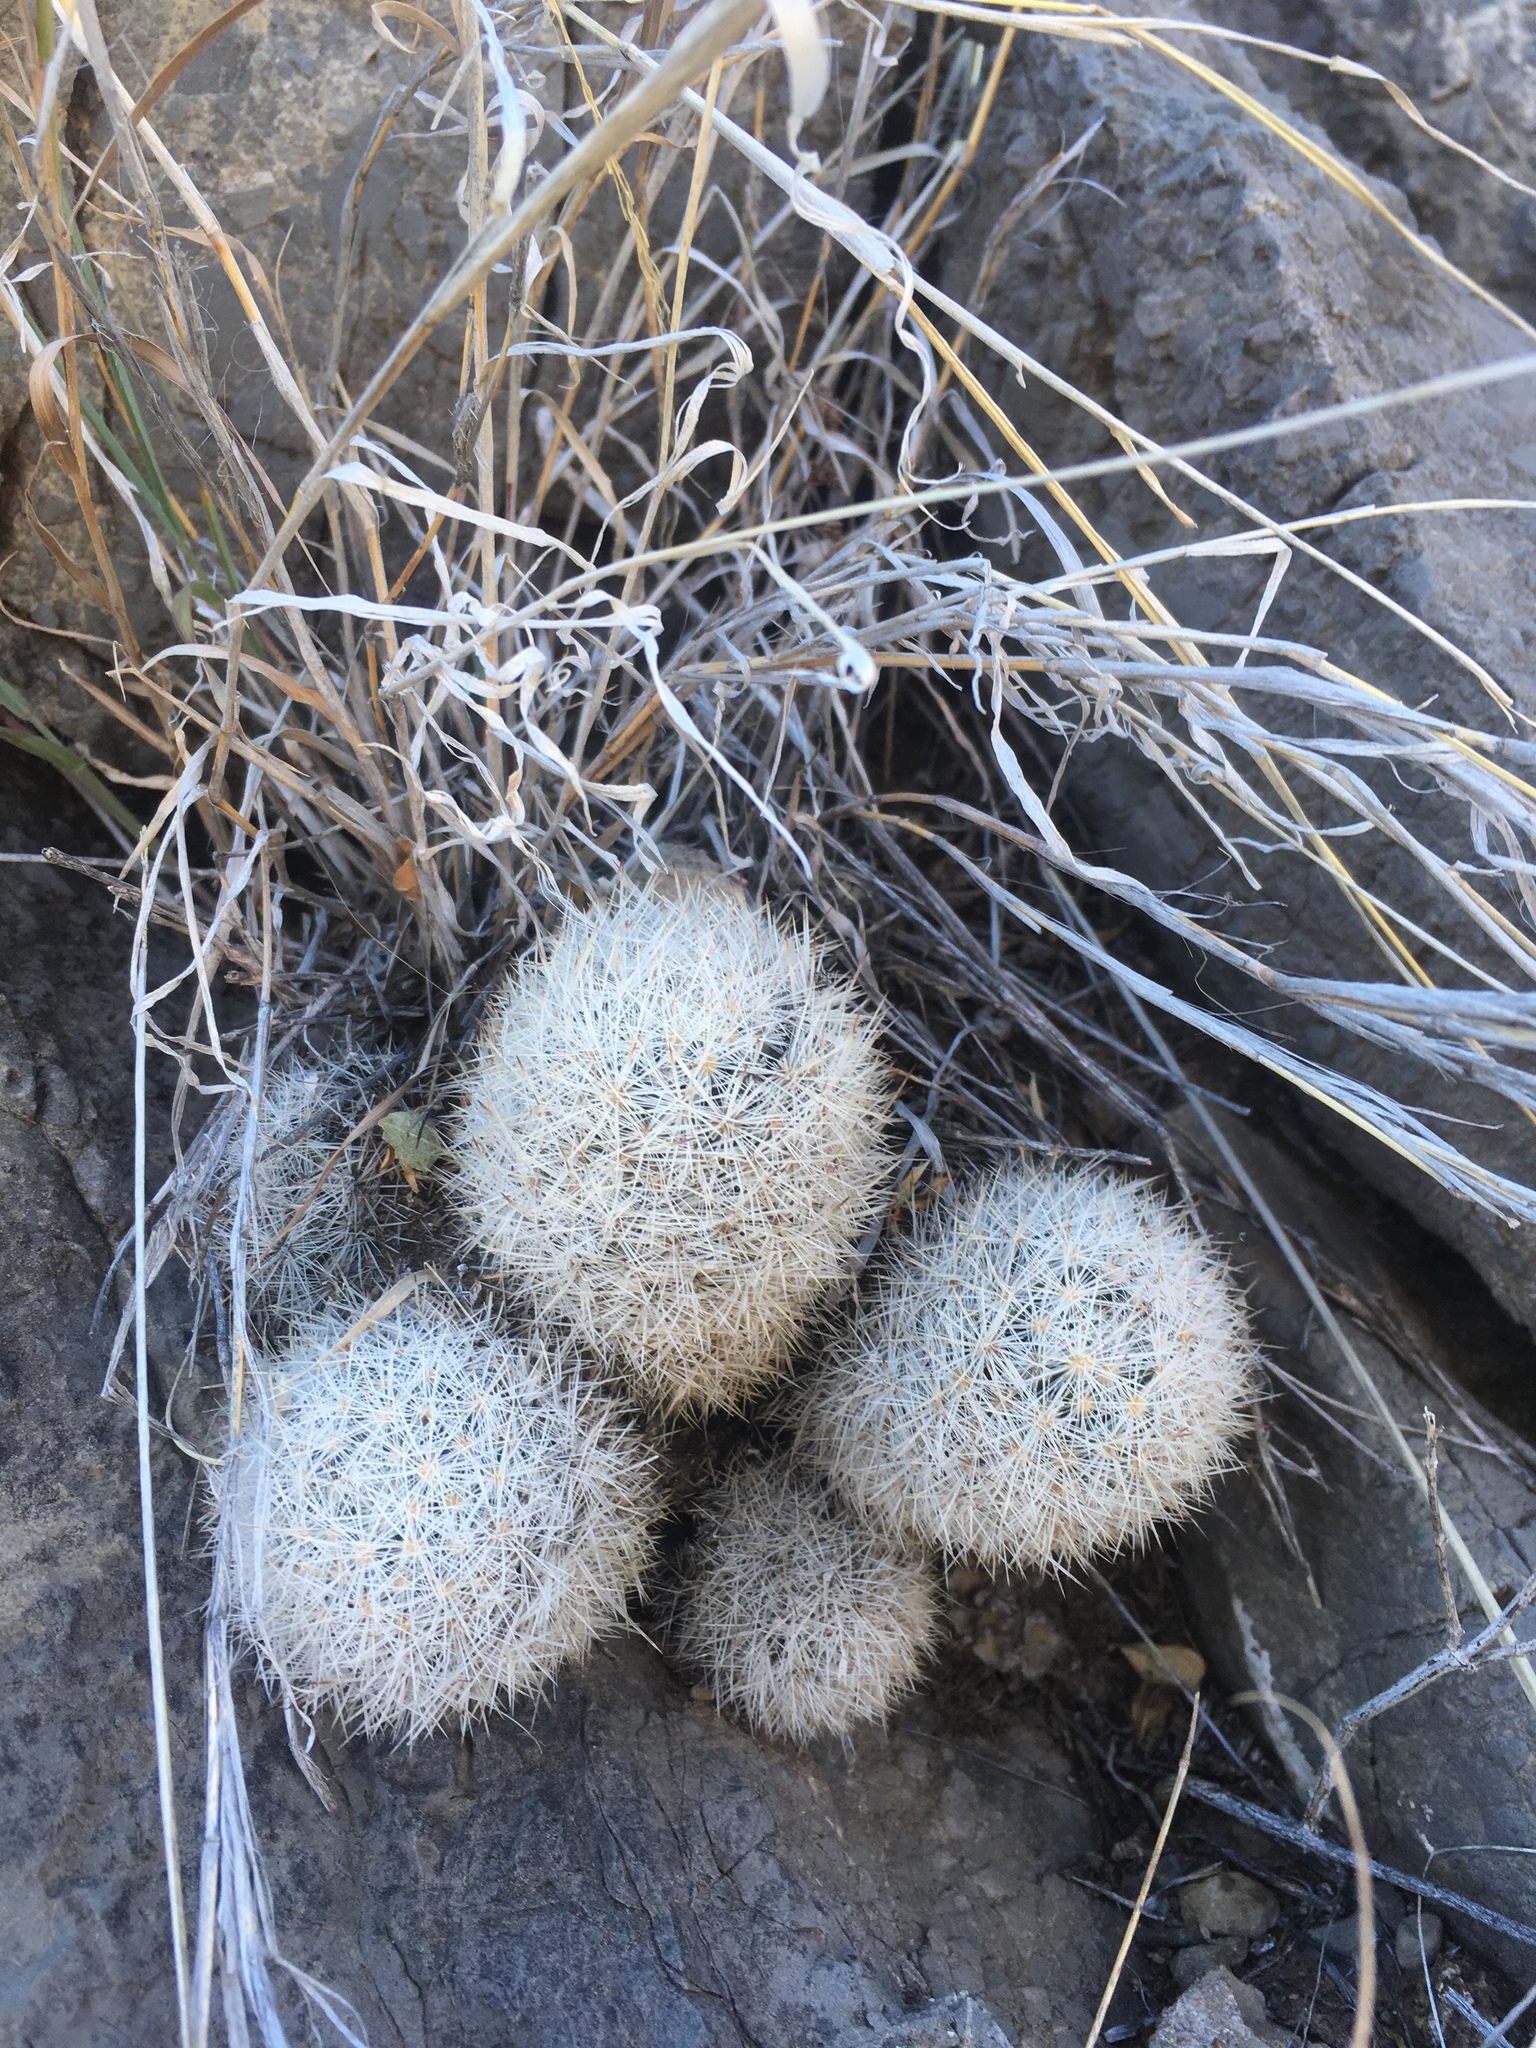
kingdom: Plantae
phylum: Tracheophyta
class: Magnoliopsida
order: Caryophyllales
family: Cactaceae
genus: Pelecyphora
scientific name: Pelecyphora sneedii
